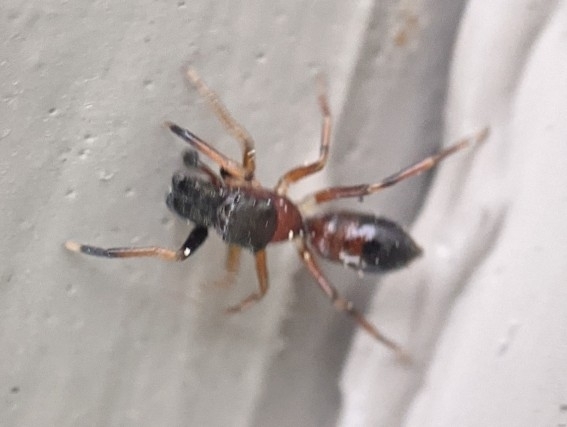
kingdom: Animalia
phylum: Arthropoda
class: Arachnida
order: Araneae
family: Salticidae
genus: Myrmarachne
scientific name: Myrmarachne formicaria
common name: Ant mimic jumping spider
